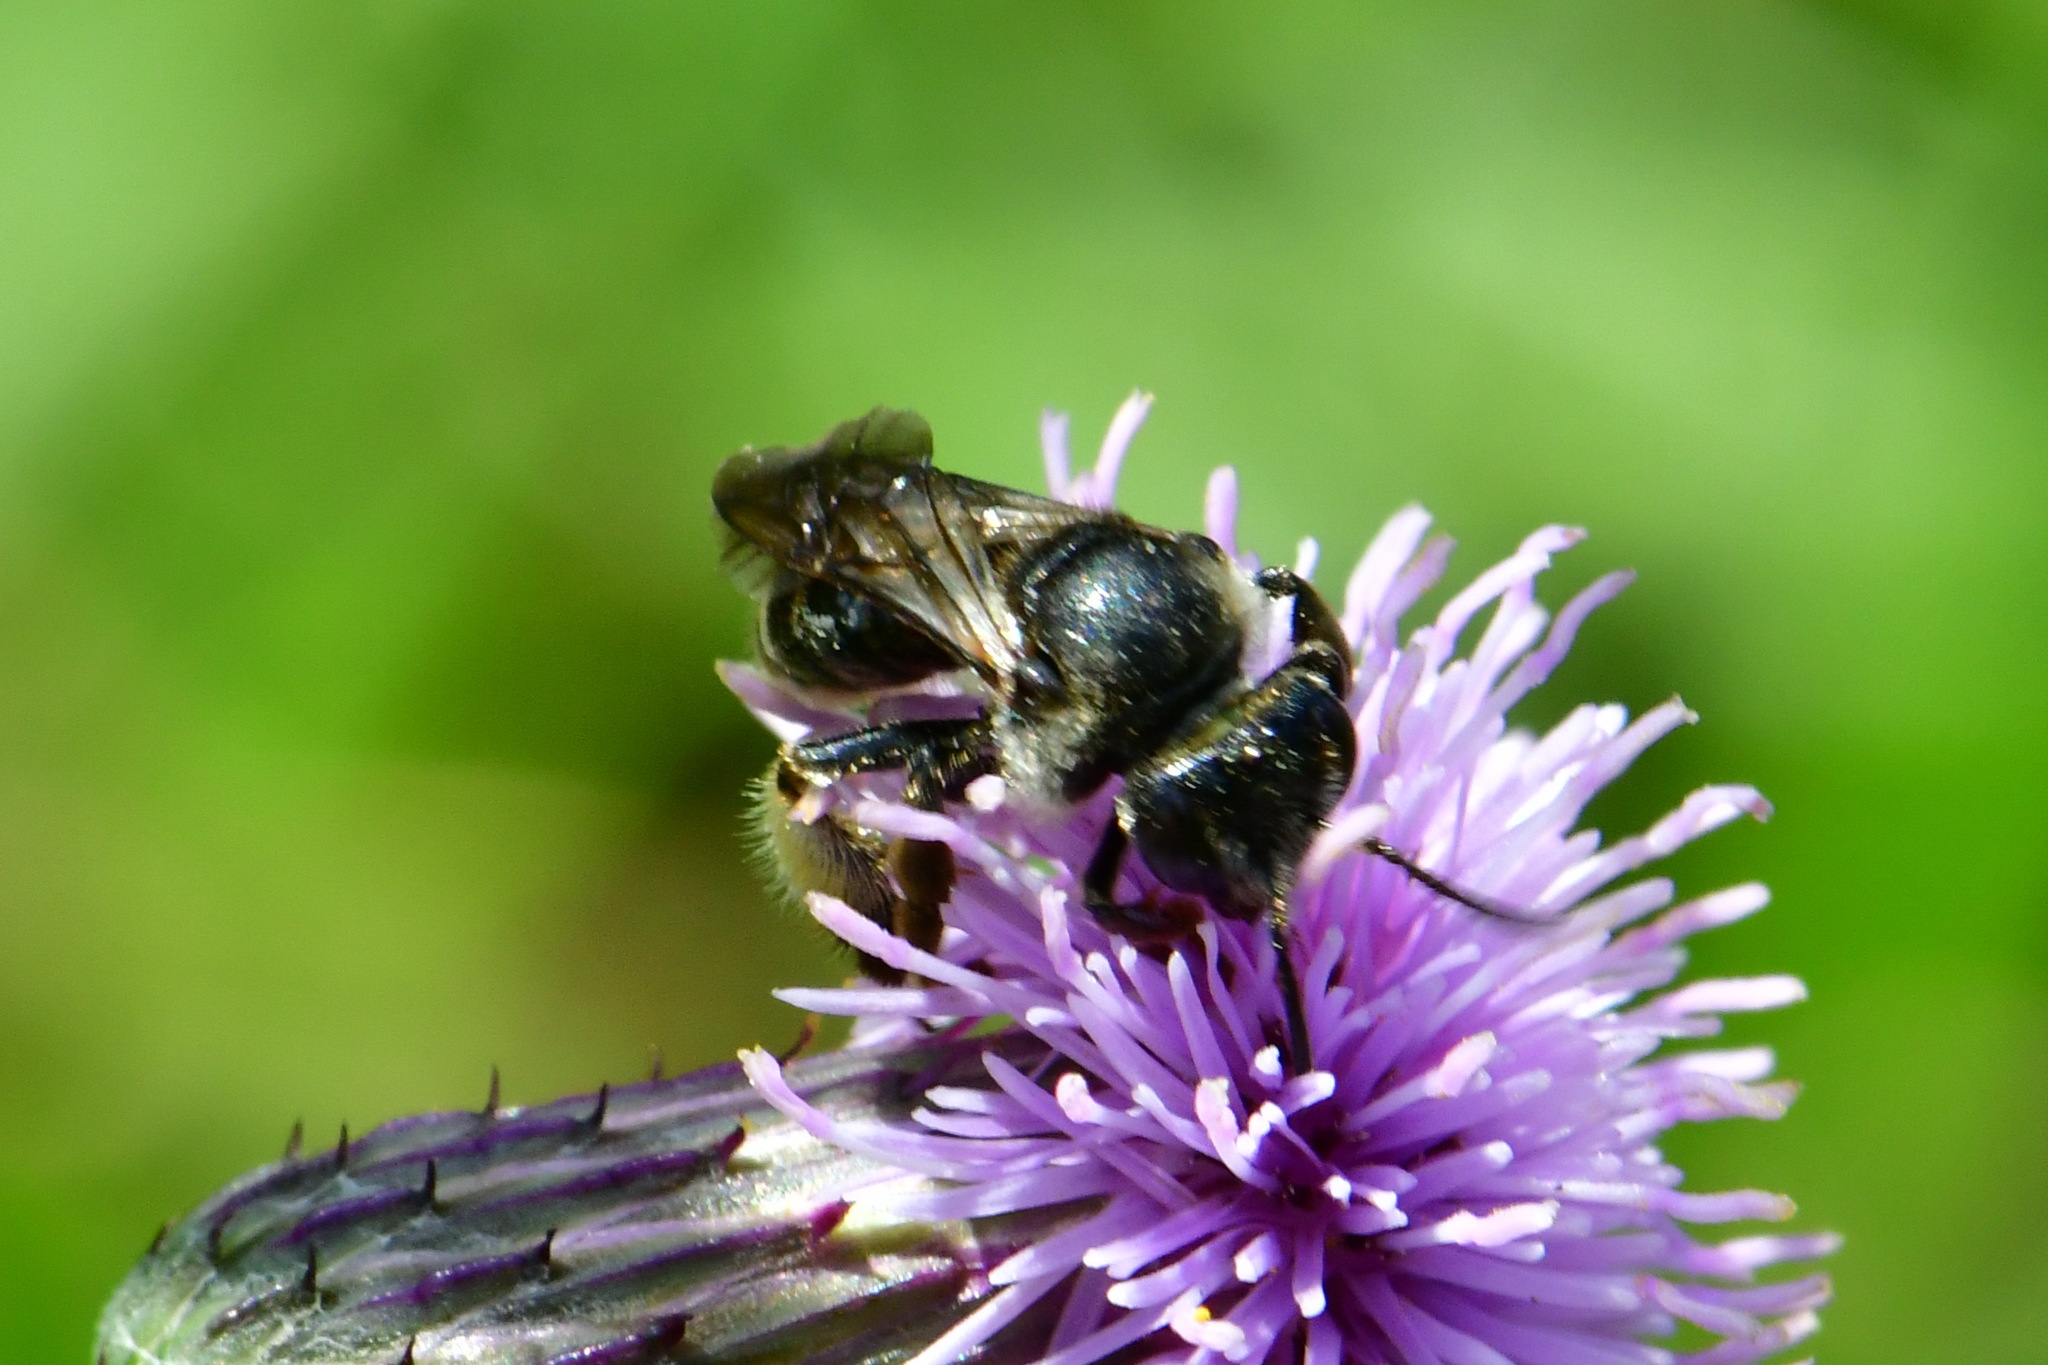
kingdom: Animalia
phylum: Arthropoda
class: Insecta
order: Hymenoptera
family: Melittidae
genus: Macropis
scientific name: Macropis europaea
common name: Yellow loosestrife bee
